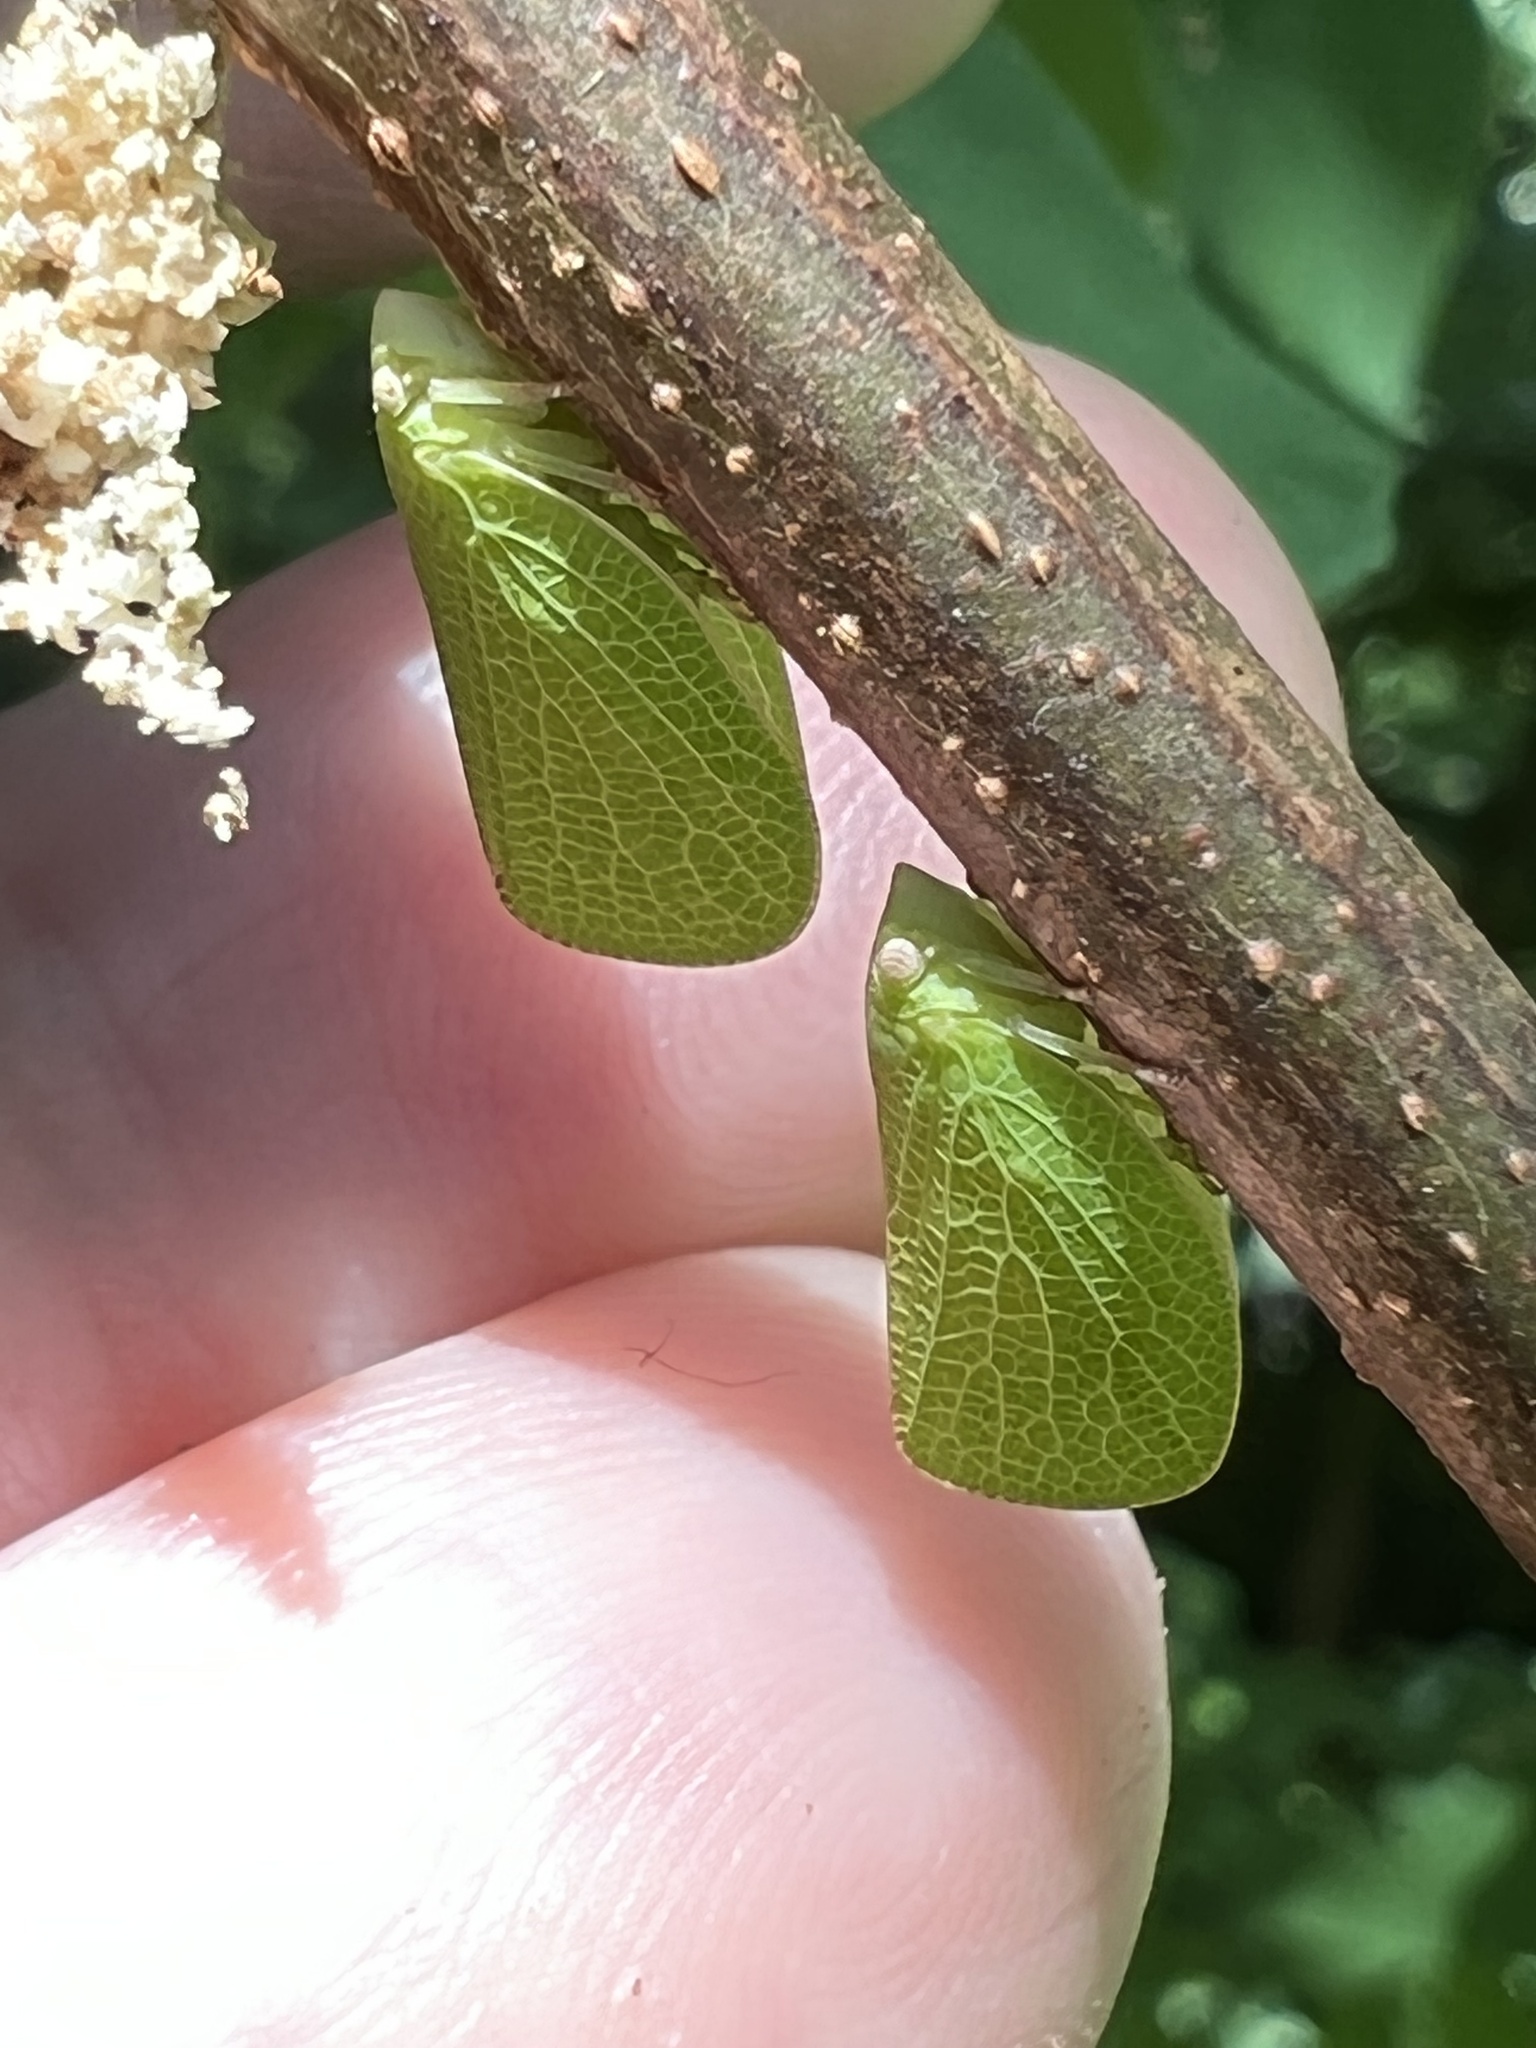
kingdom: Animalia
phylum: Arthropoda
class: Insecta
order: Hemiptera
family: Acanaloniidae
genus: Acanalonia
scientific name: Acanalonia conica
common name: Green cone-headed planthopper
